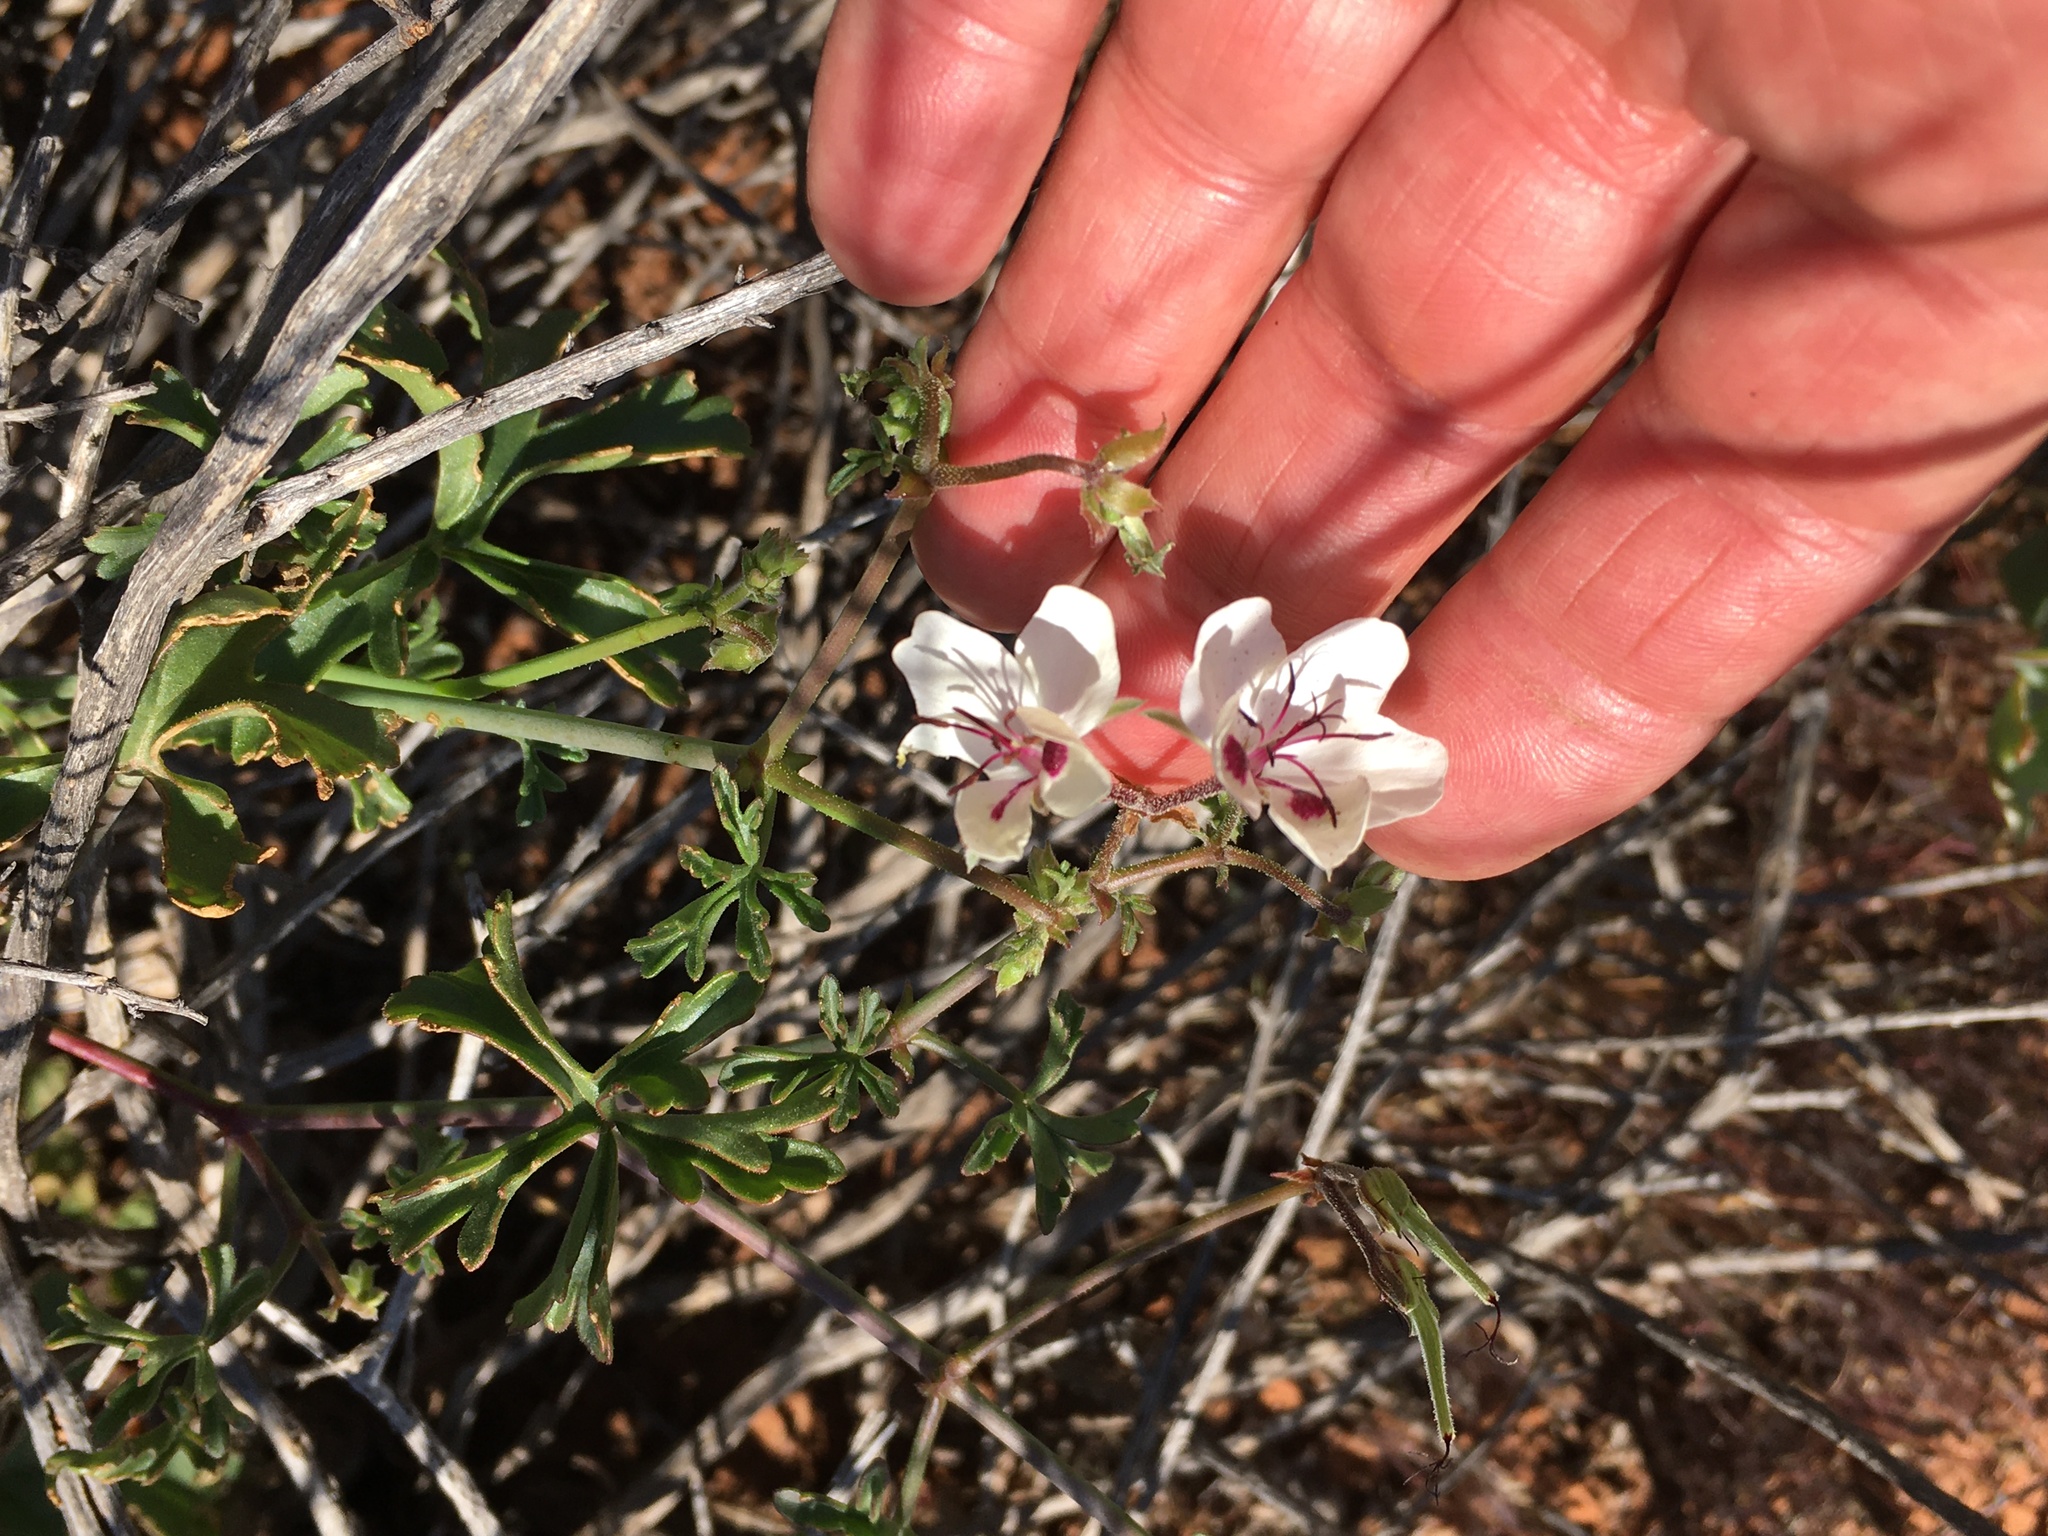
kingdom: Plantae
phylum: Tracheophyta
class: Magnoliopsida
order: Geraniales
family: Geraniaceae
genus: Pelargonium
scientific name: Pelargonium tenuicaule
